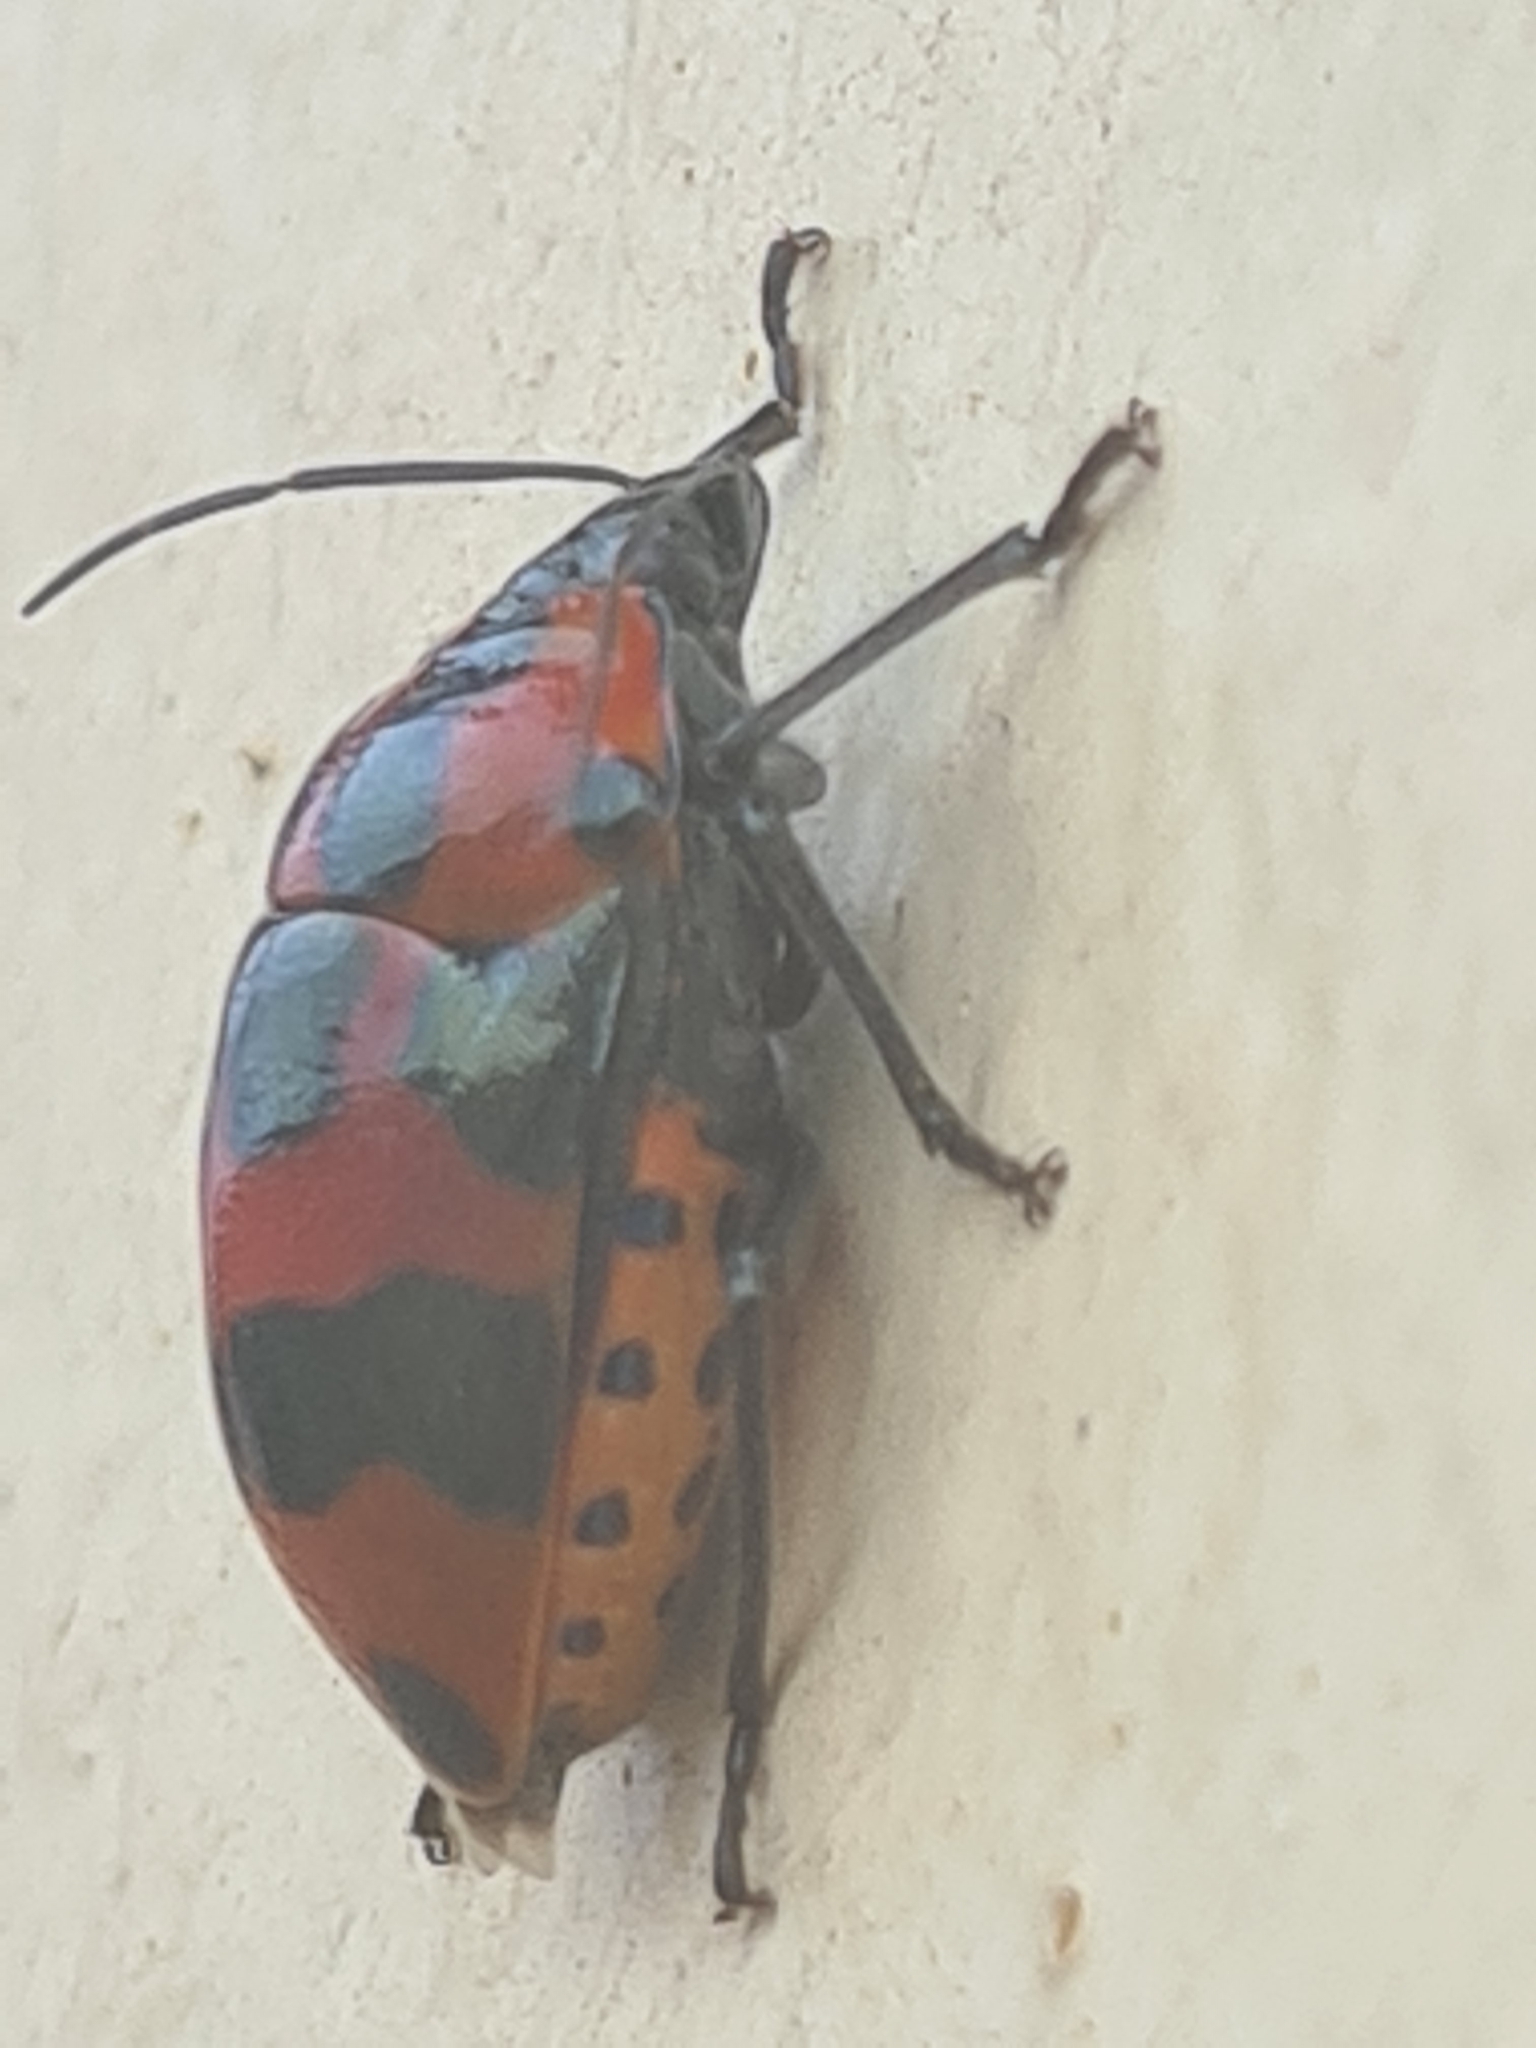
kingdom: Animalia
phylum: Arthropoda
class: Insecta
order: Hemiptera
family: Scutelleridae
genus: Augocoris
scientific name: Augocoris gomesii
